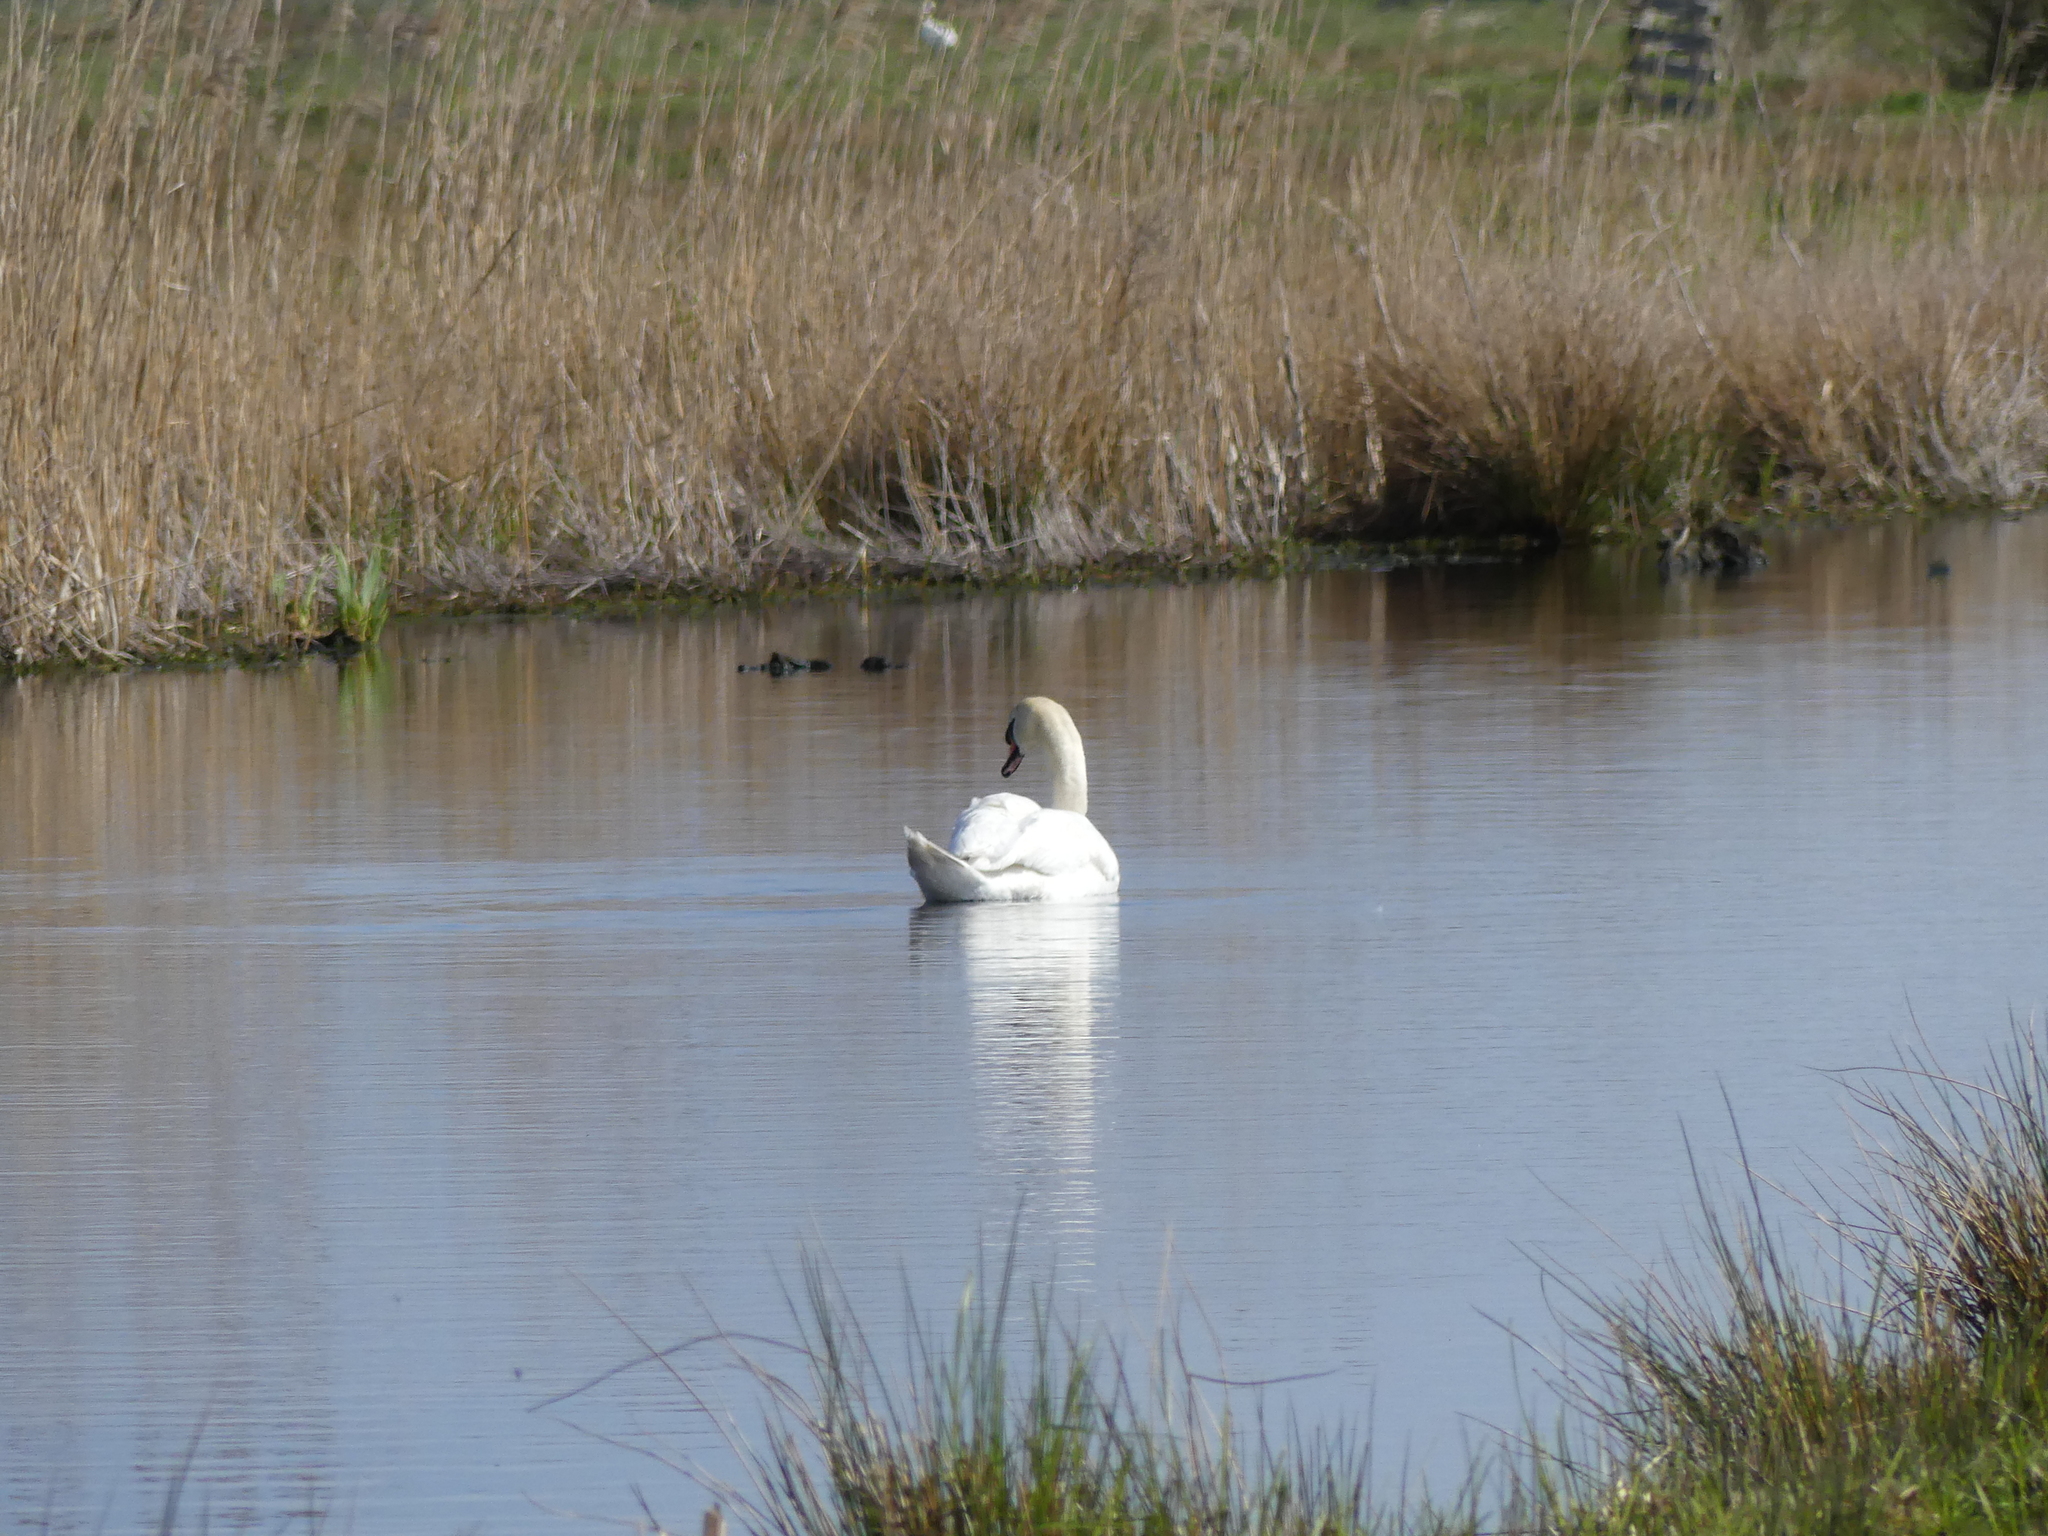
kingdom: Animalia
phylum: Chordata
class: Aves
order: Anseriformes
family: Anatidae
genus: Cygnus
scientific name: Cygnus olor
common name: Mute swan
